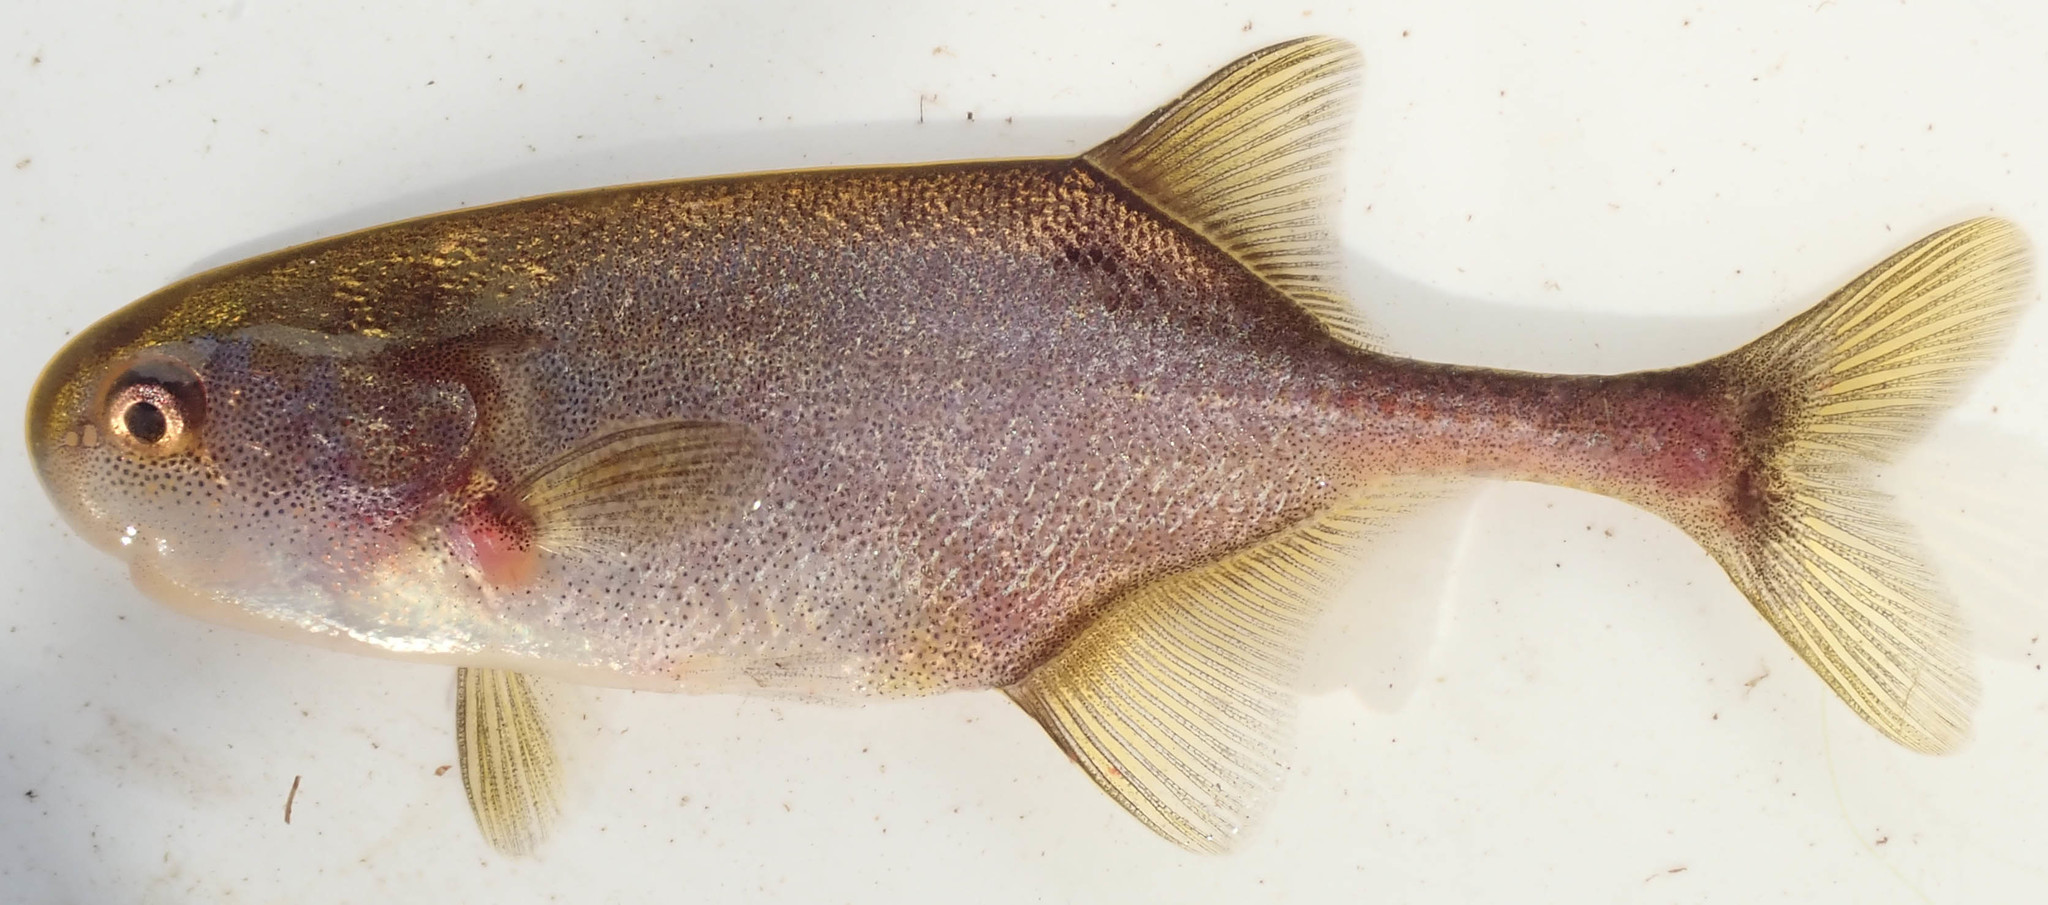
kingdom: Animalia
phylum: Chordata
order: Osteoglossiformes
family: Mormyridae
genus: Petrocephalus
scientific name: Petrocephalus okavangensis
